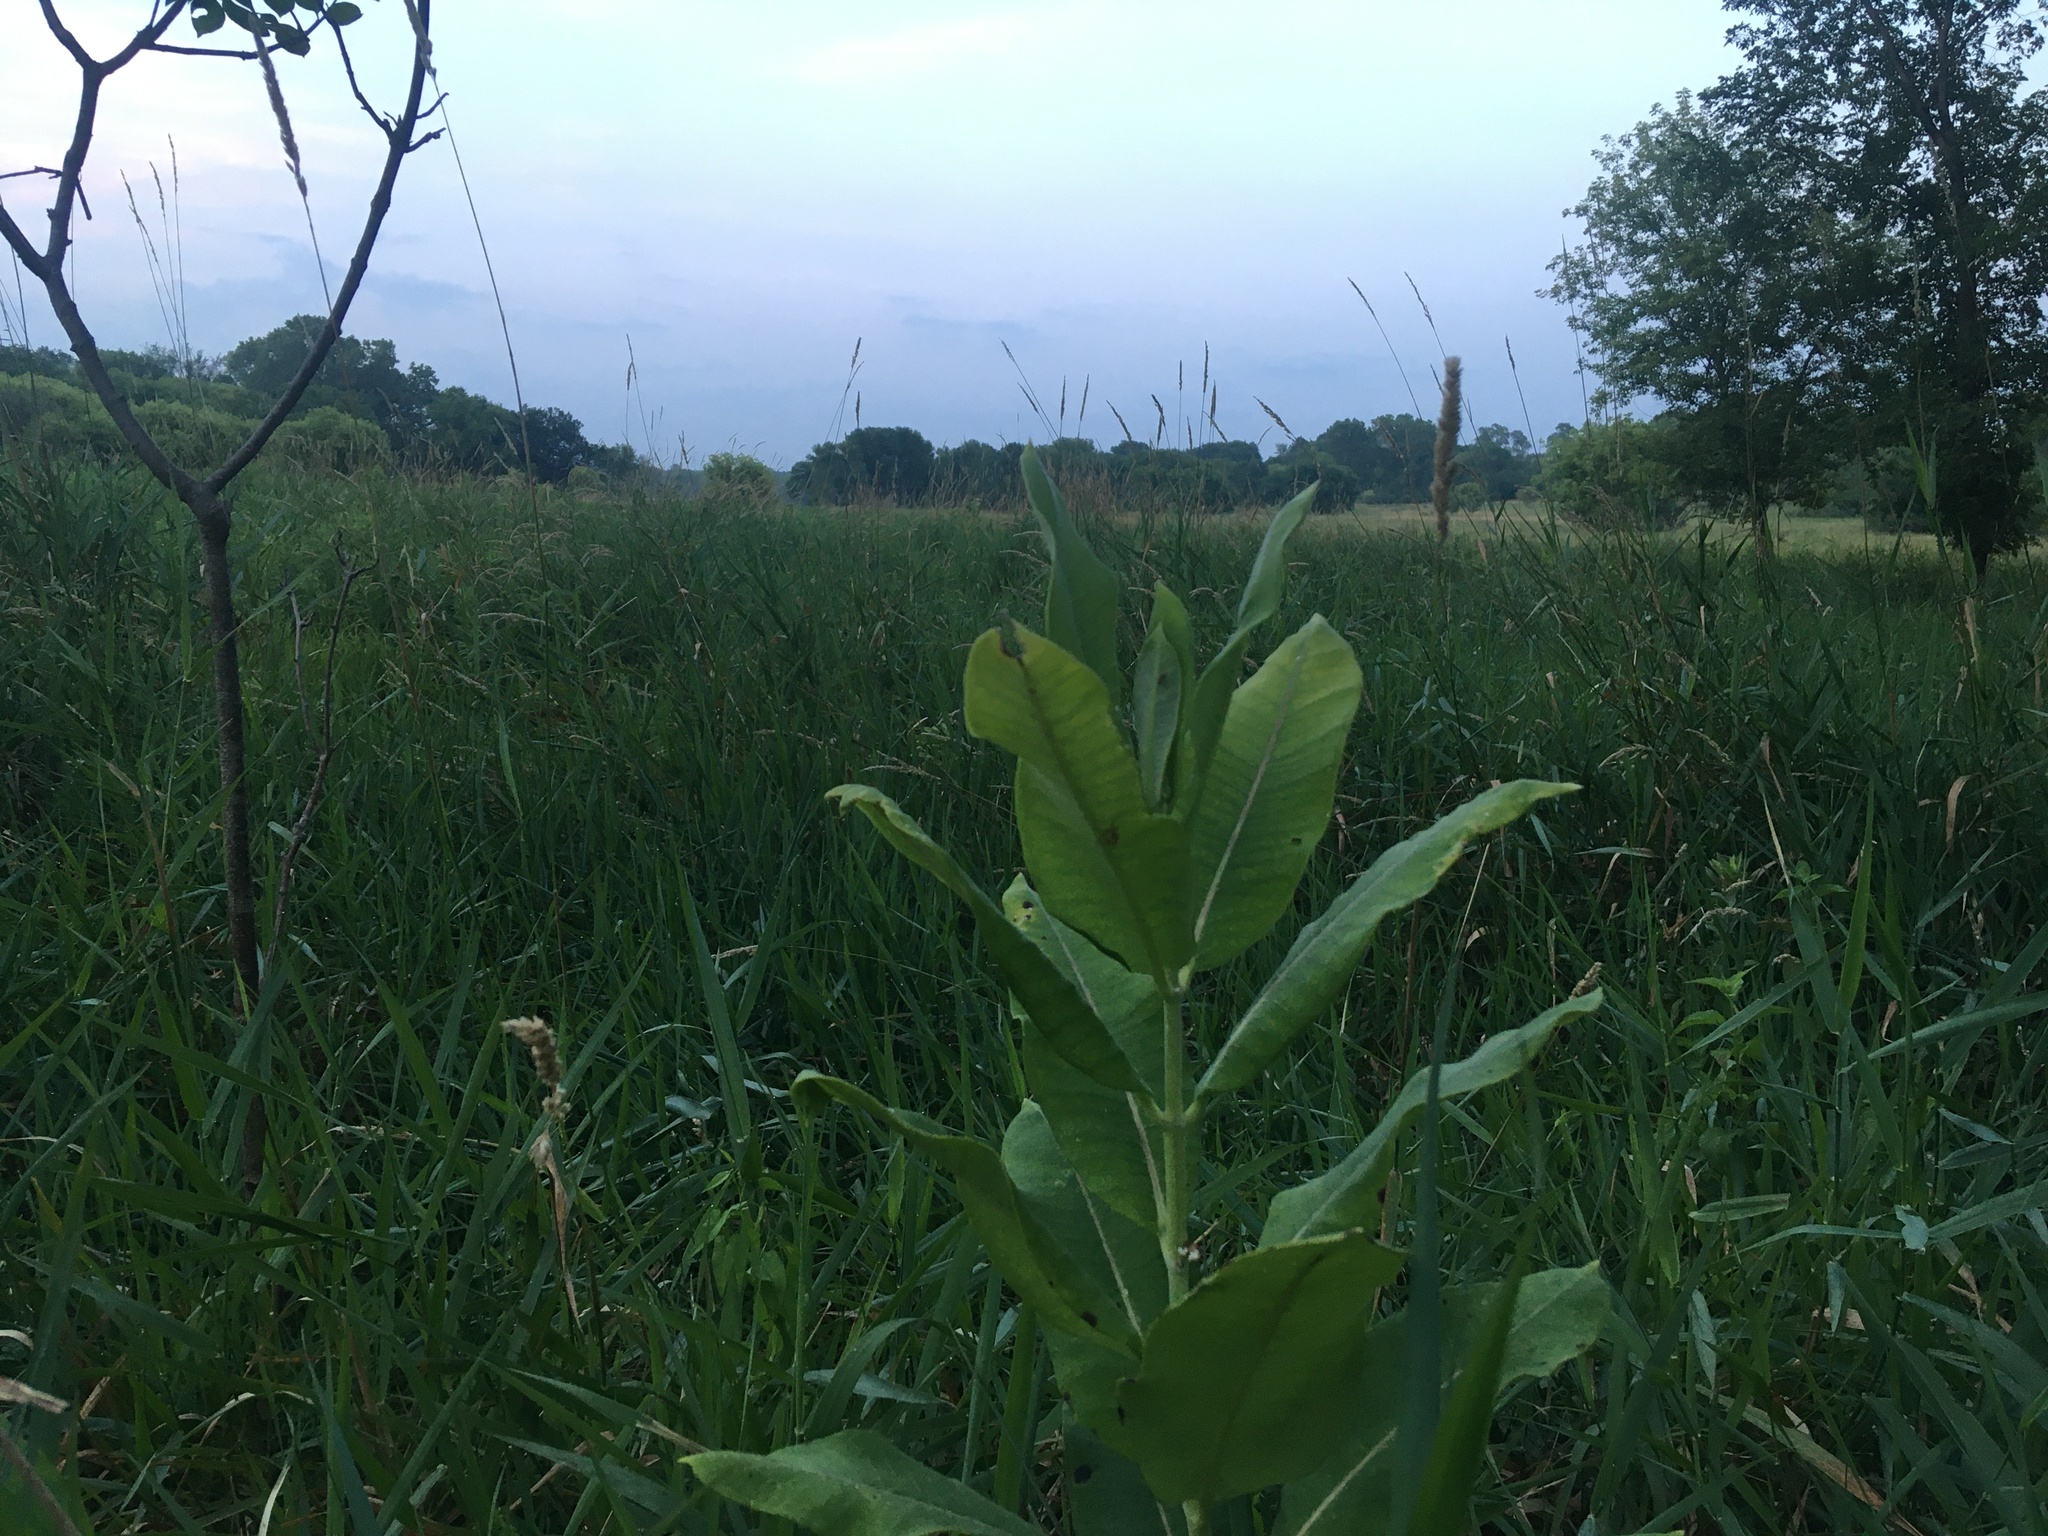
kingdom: Plantae
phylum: Tracheophyta
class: Magnoliopsida
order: Gentianales
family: Apocynaceae
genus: Asclepias
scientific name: Asclepias syriaca
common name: Common milkweed
